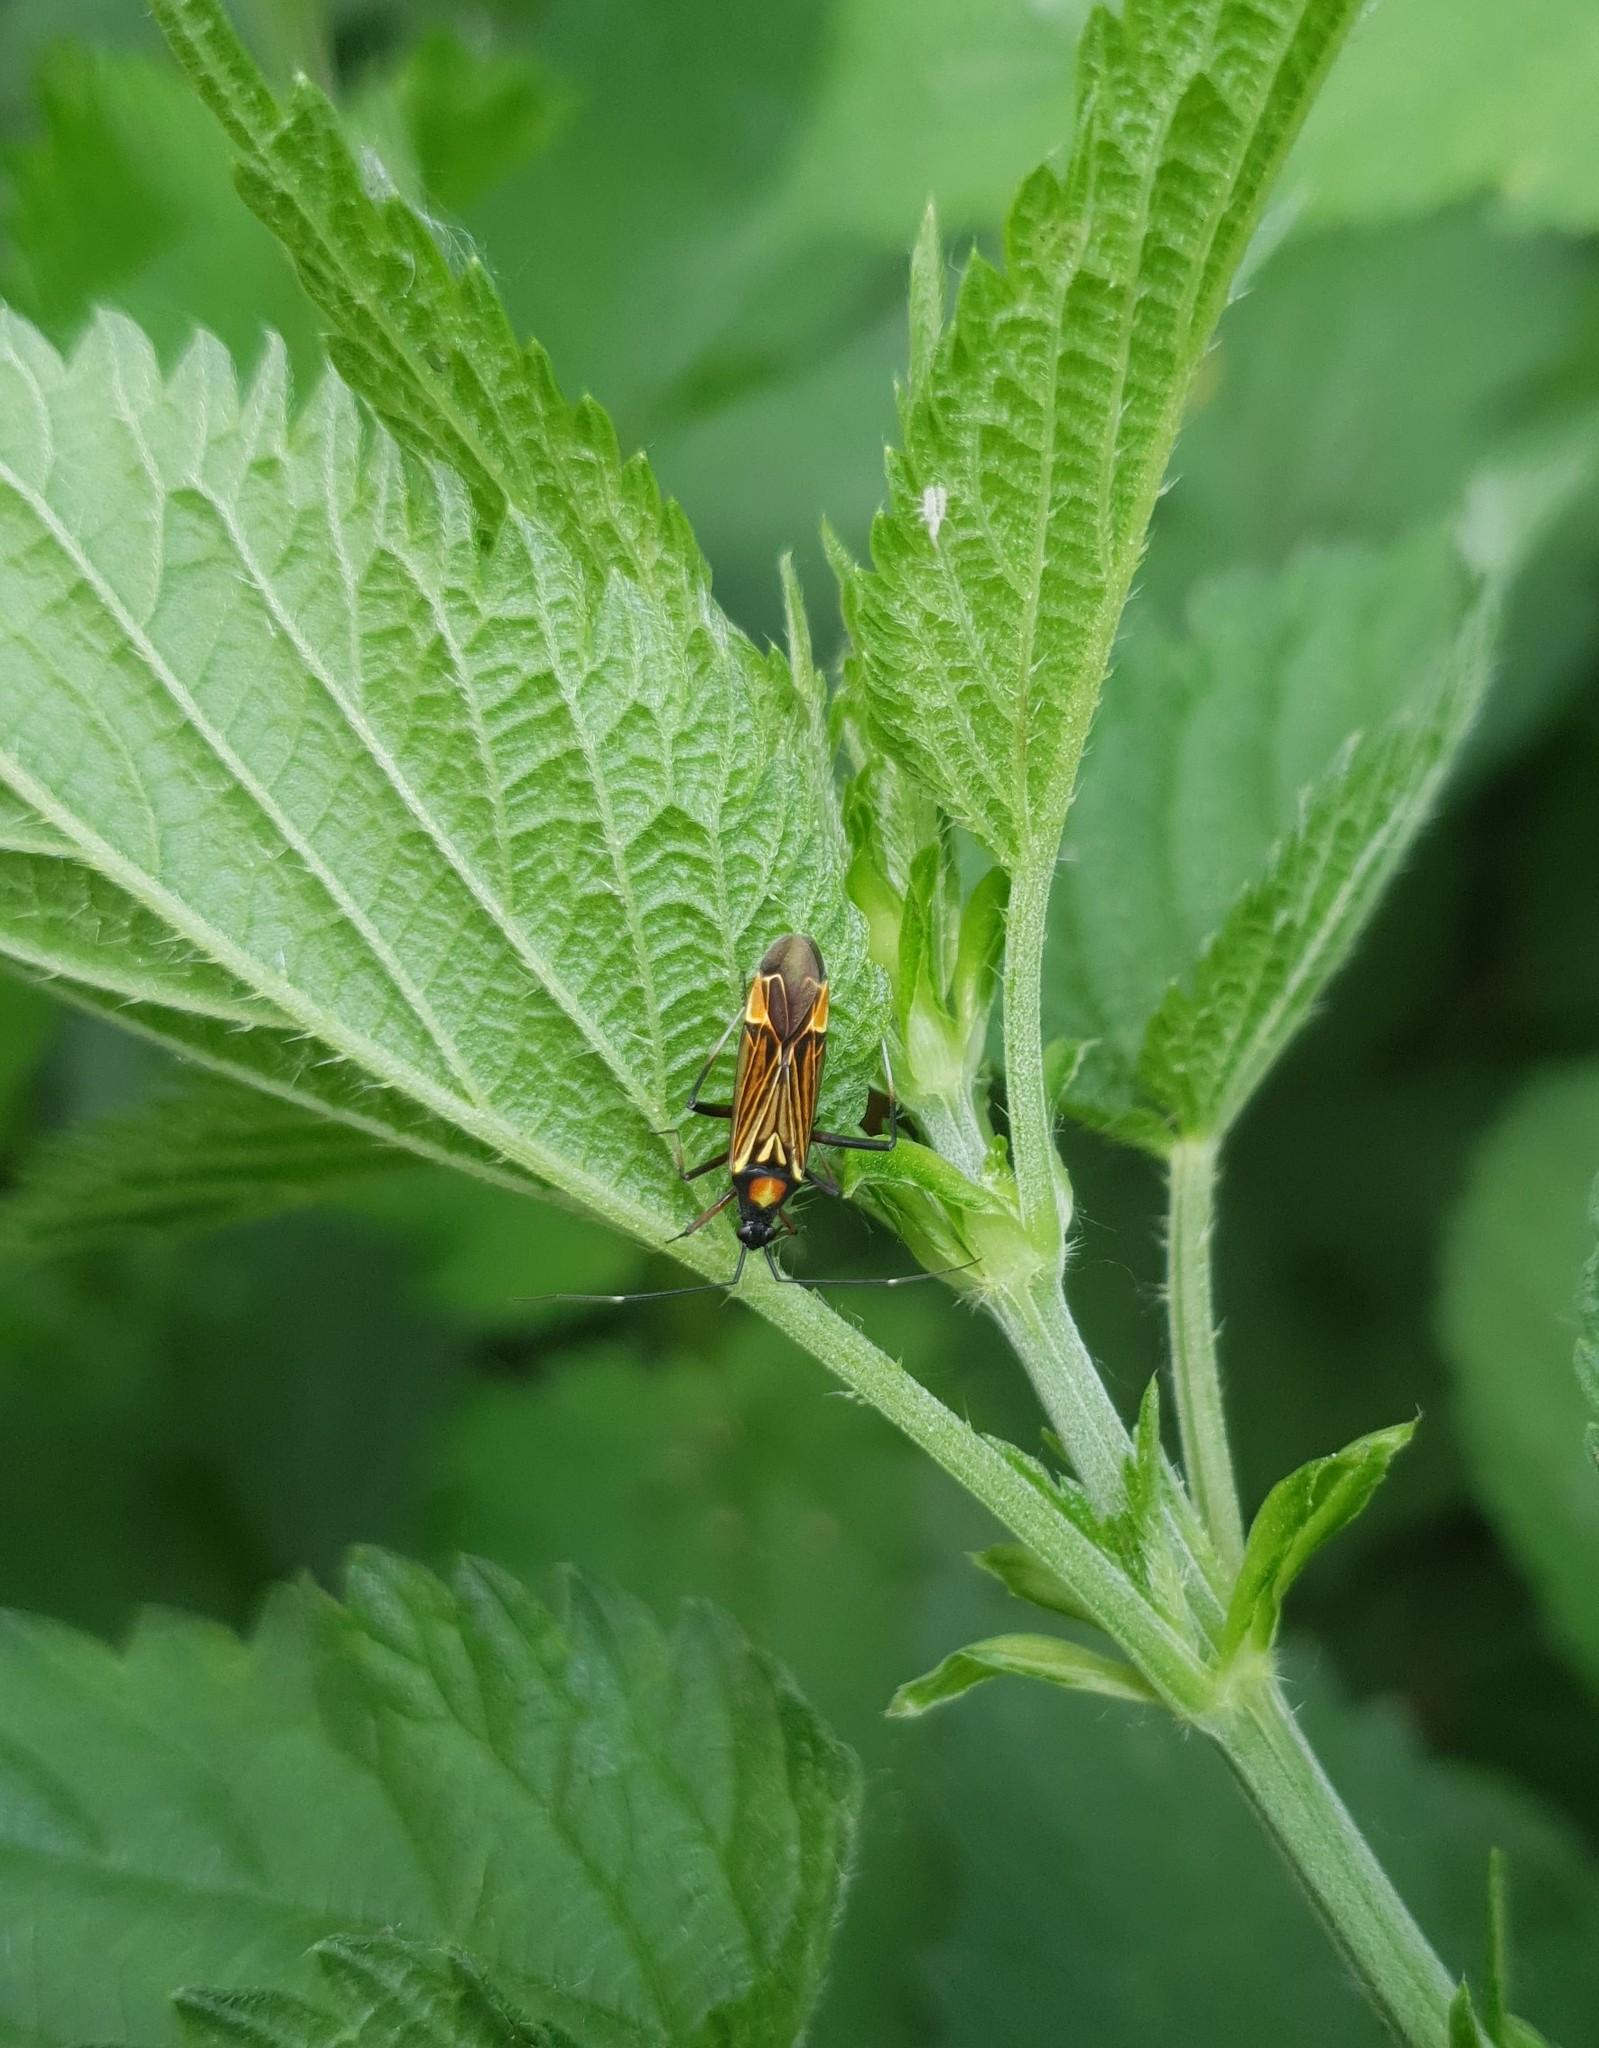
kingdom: Animalia
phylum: Arthropoda
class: Insecta
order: Hemiptera
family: Miridae
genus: Miris
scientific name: Miris striatus
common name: Fine streaked bugkin
